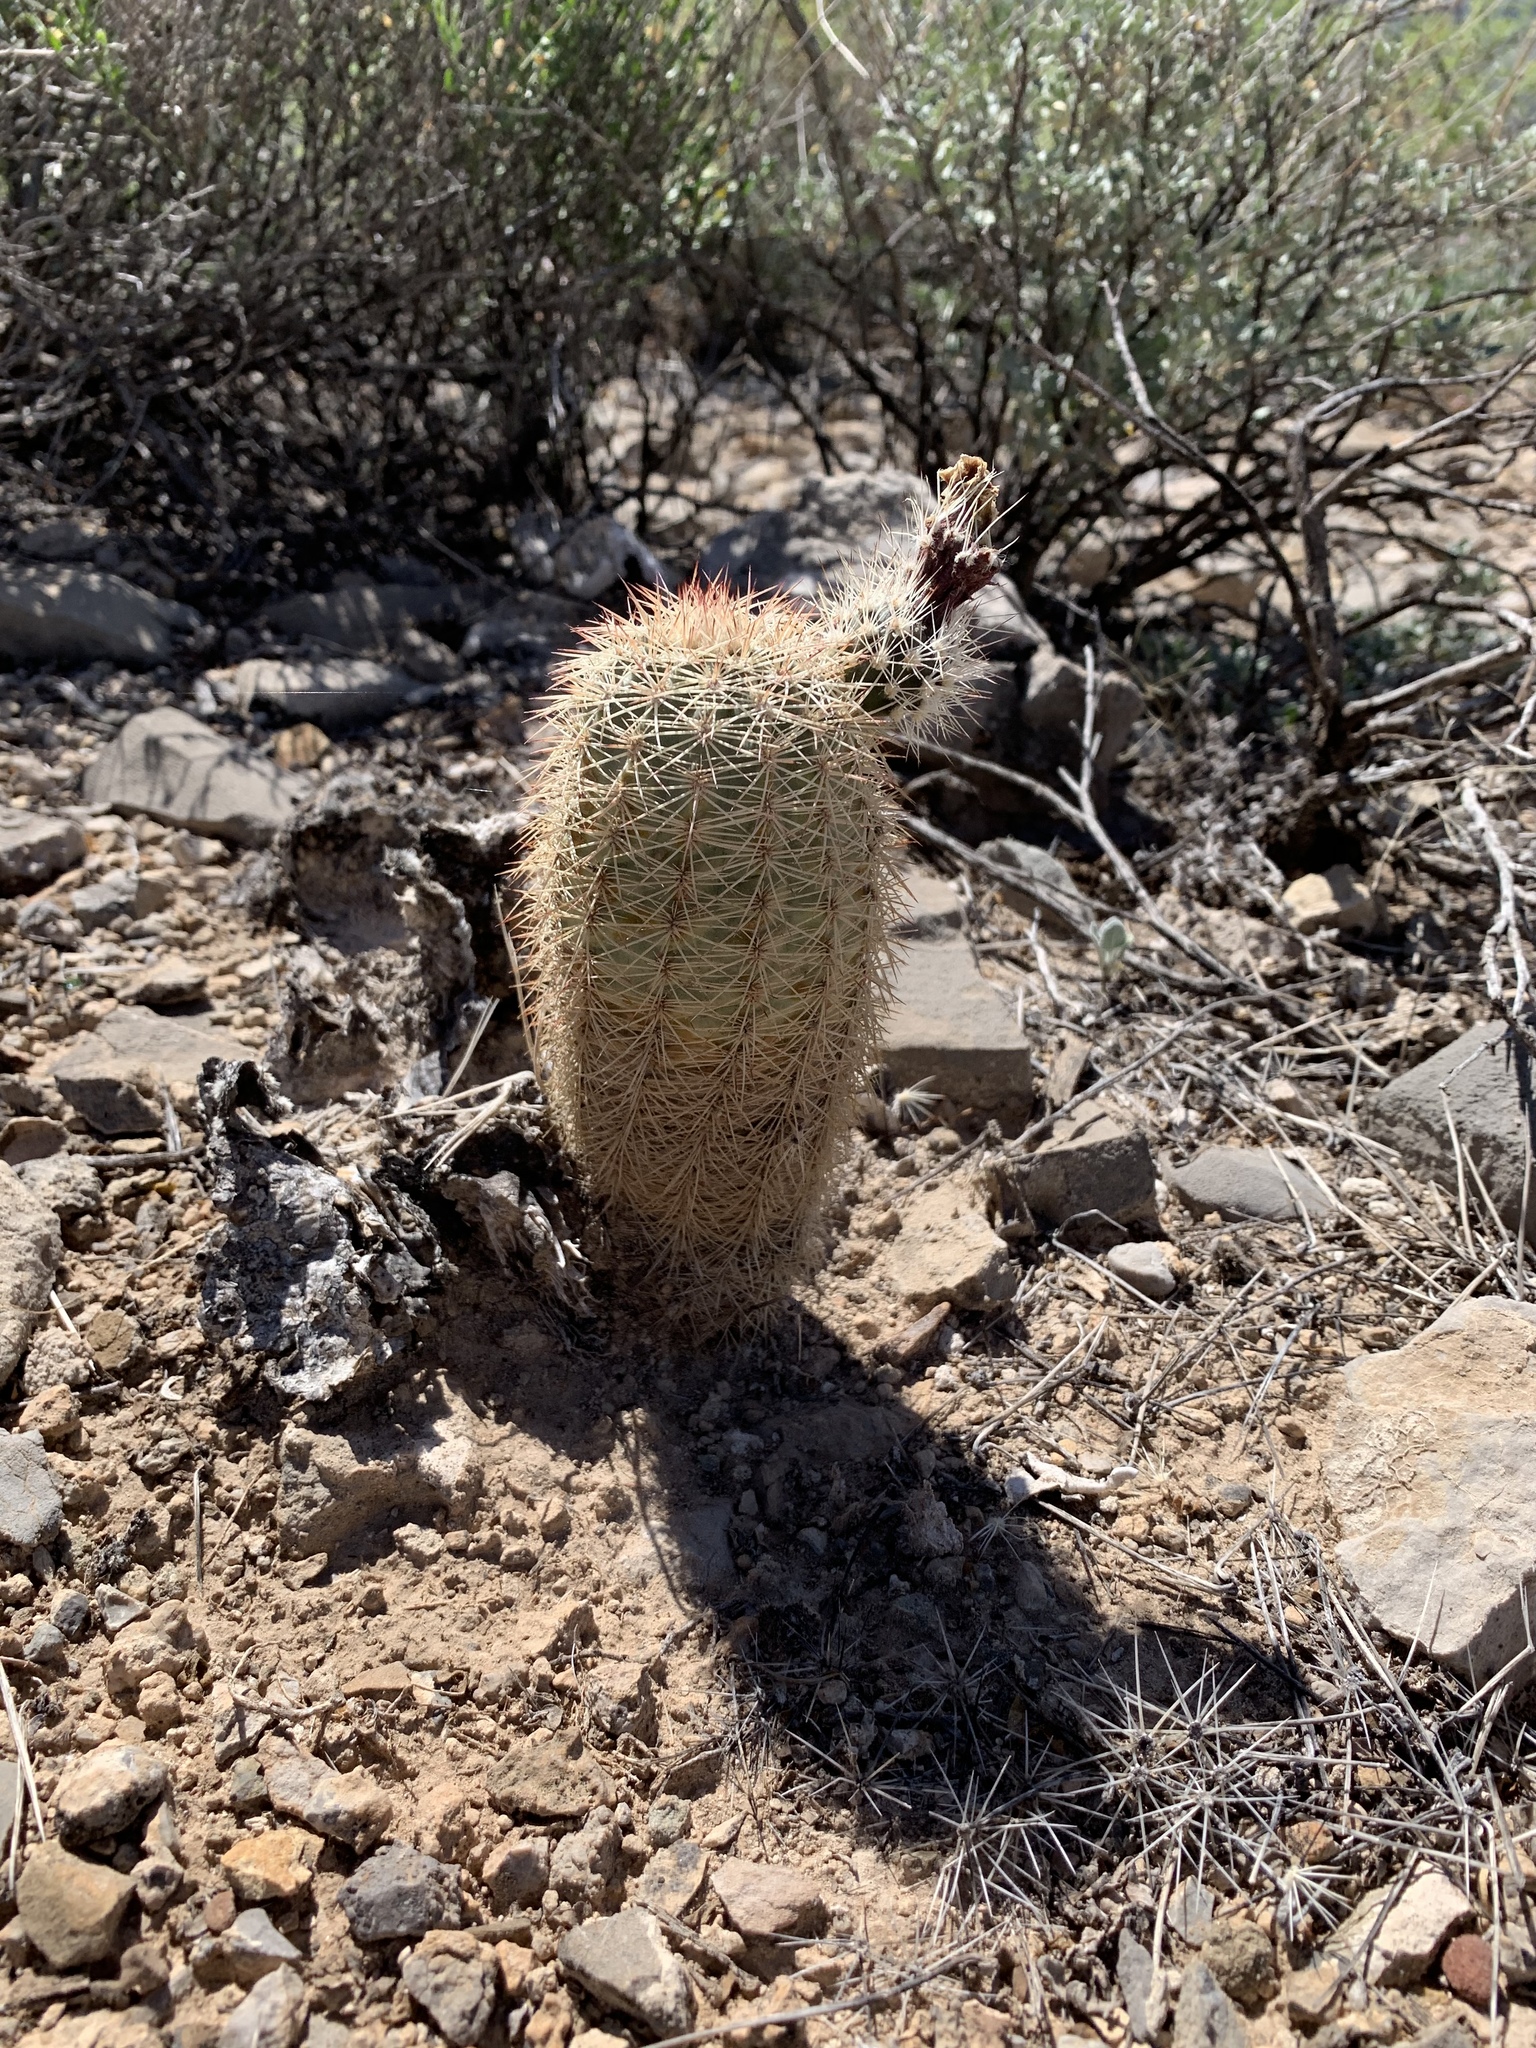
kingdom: Plantae
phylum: Tracheophyta
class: Magnoliopsida
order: Caryophyllales
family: Cactaceae
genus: Echinocereus
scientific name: Echinocereus dasyacanthus
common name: Spiny hedgehog cactus
